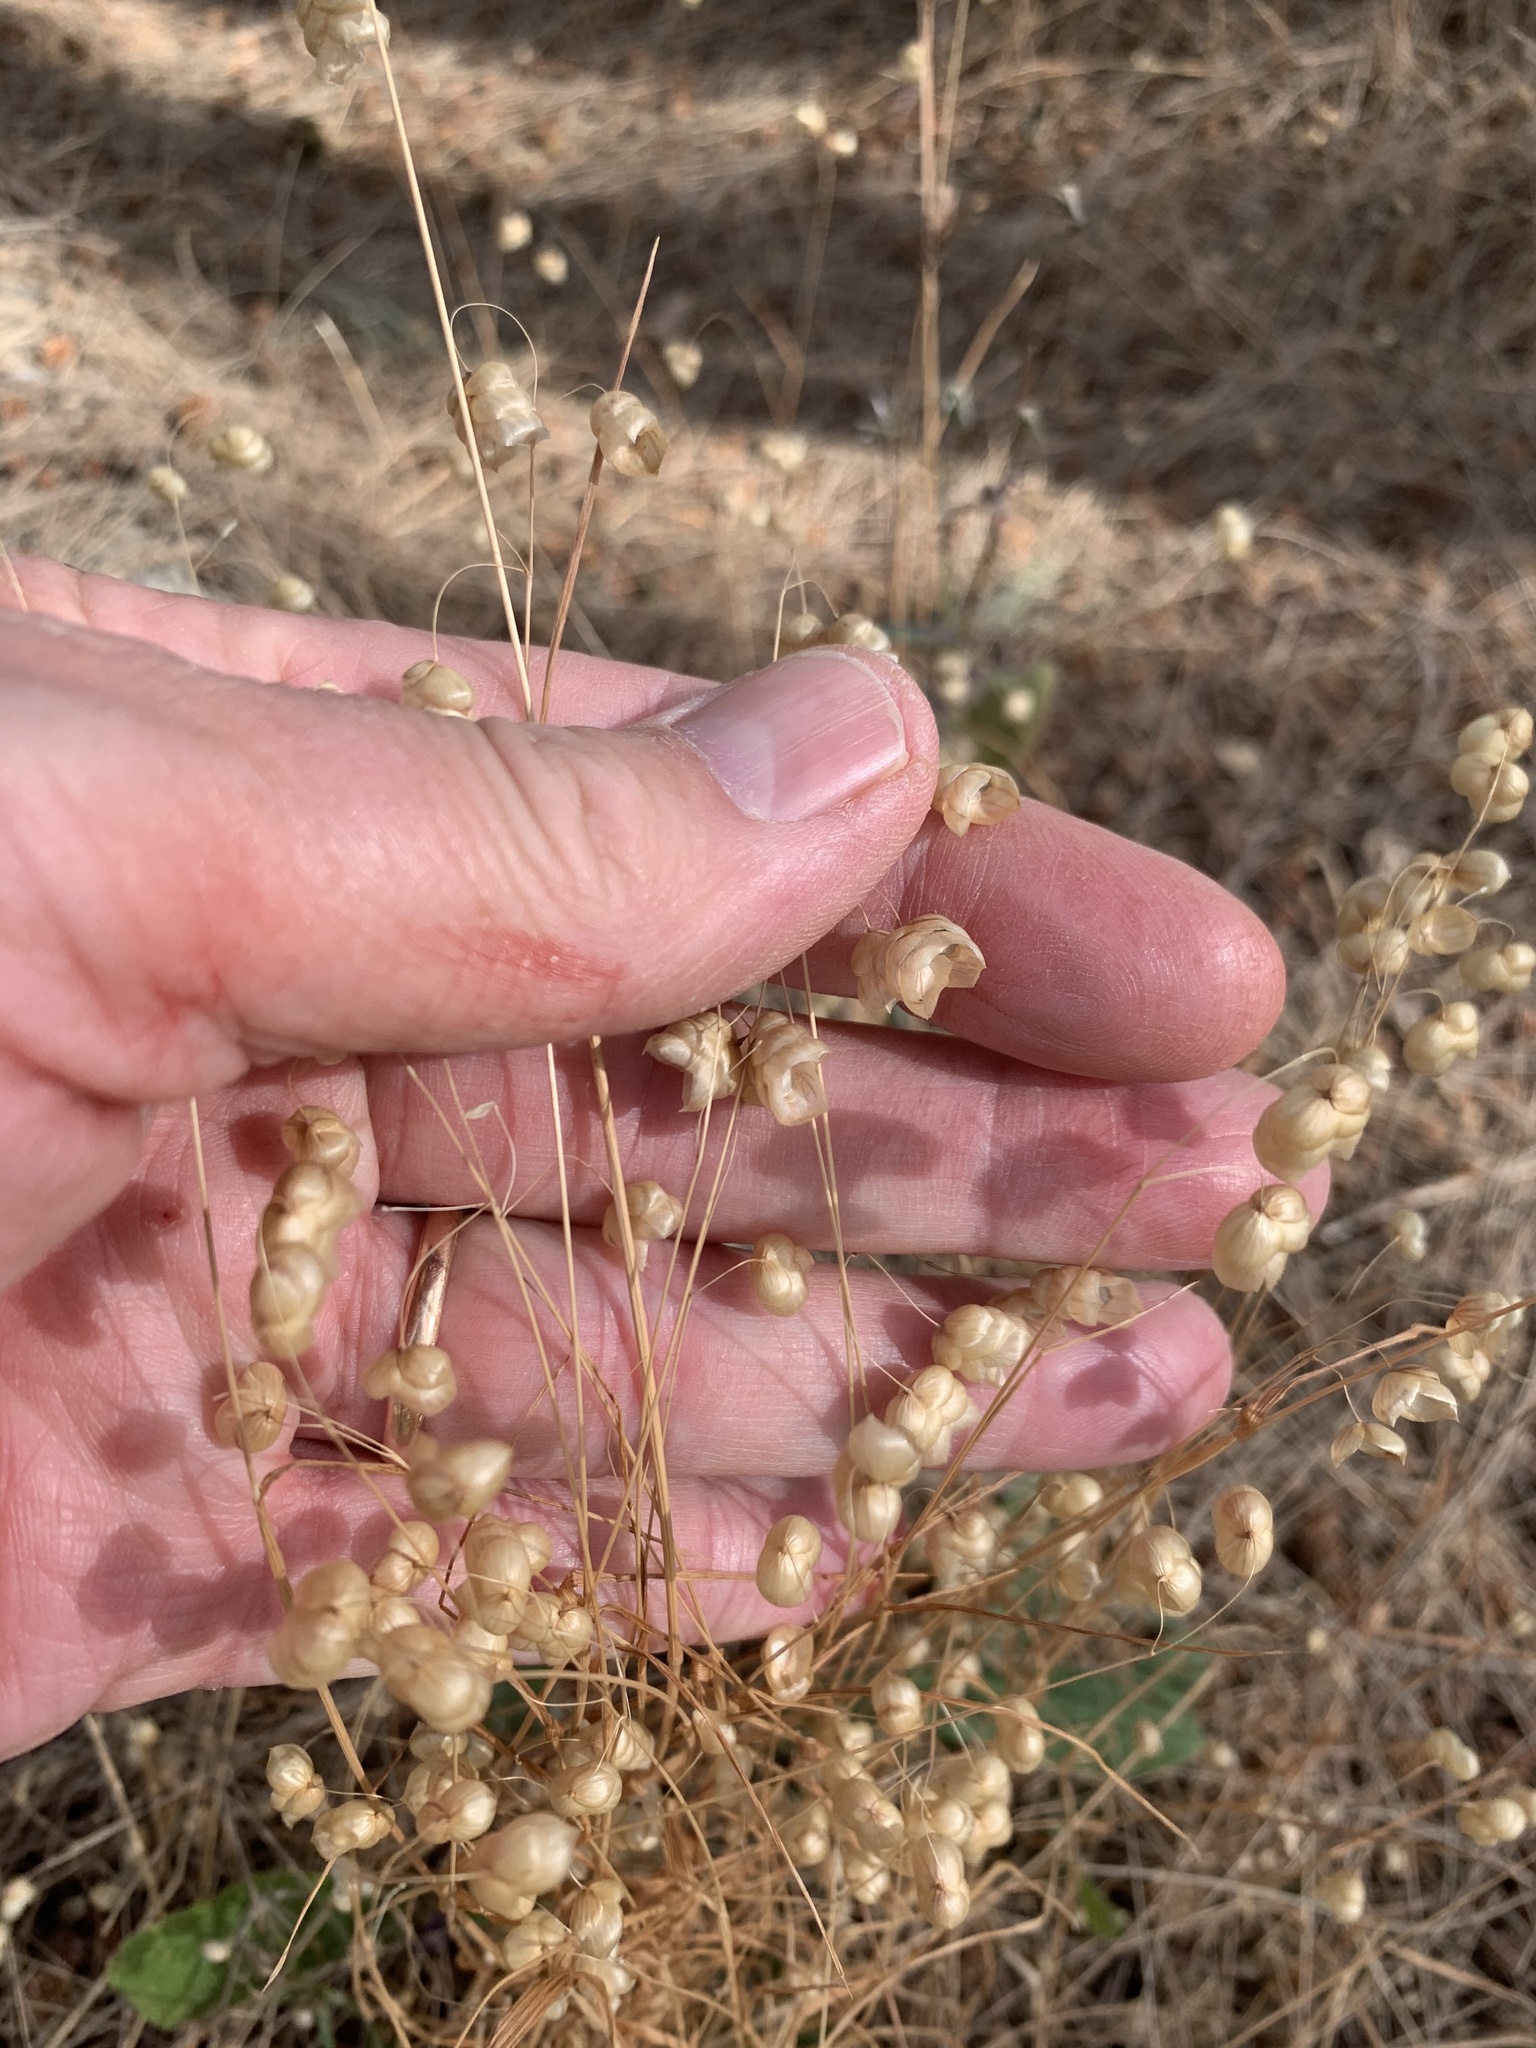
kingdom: Plantae
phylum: Tracheophyta
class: Liliopsida
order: Poales
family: Poaceae
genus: Briza
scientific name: Briza maxima
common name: Big quakinggrass
